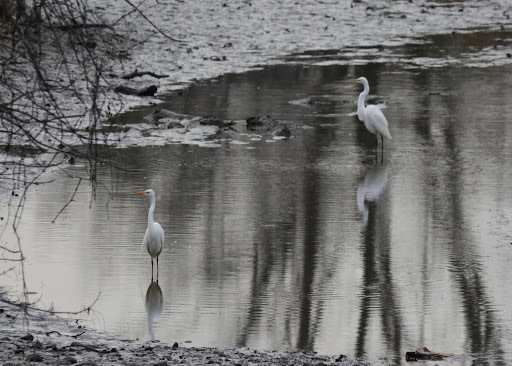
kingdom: Animalia
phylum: Chordata
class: Aves
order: Pelecaniformes
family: Ardeidae
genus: Ardea
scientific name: Ardea alba
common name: Great egret
